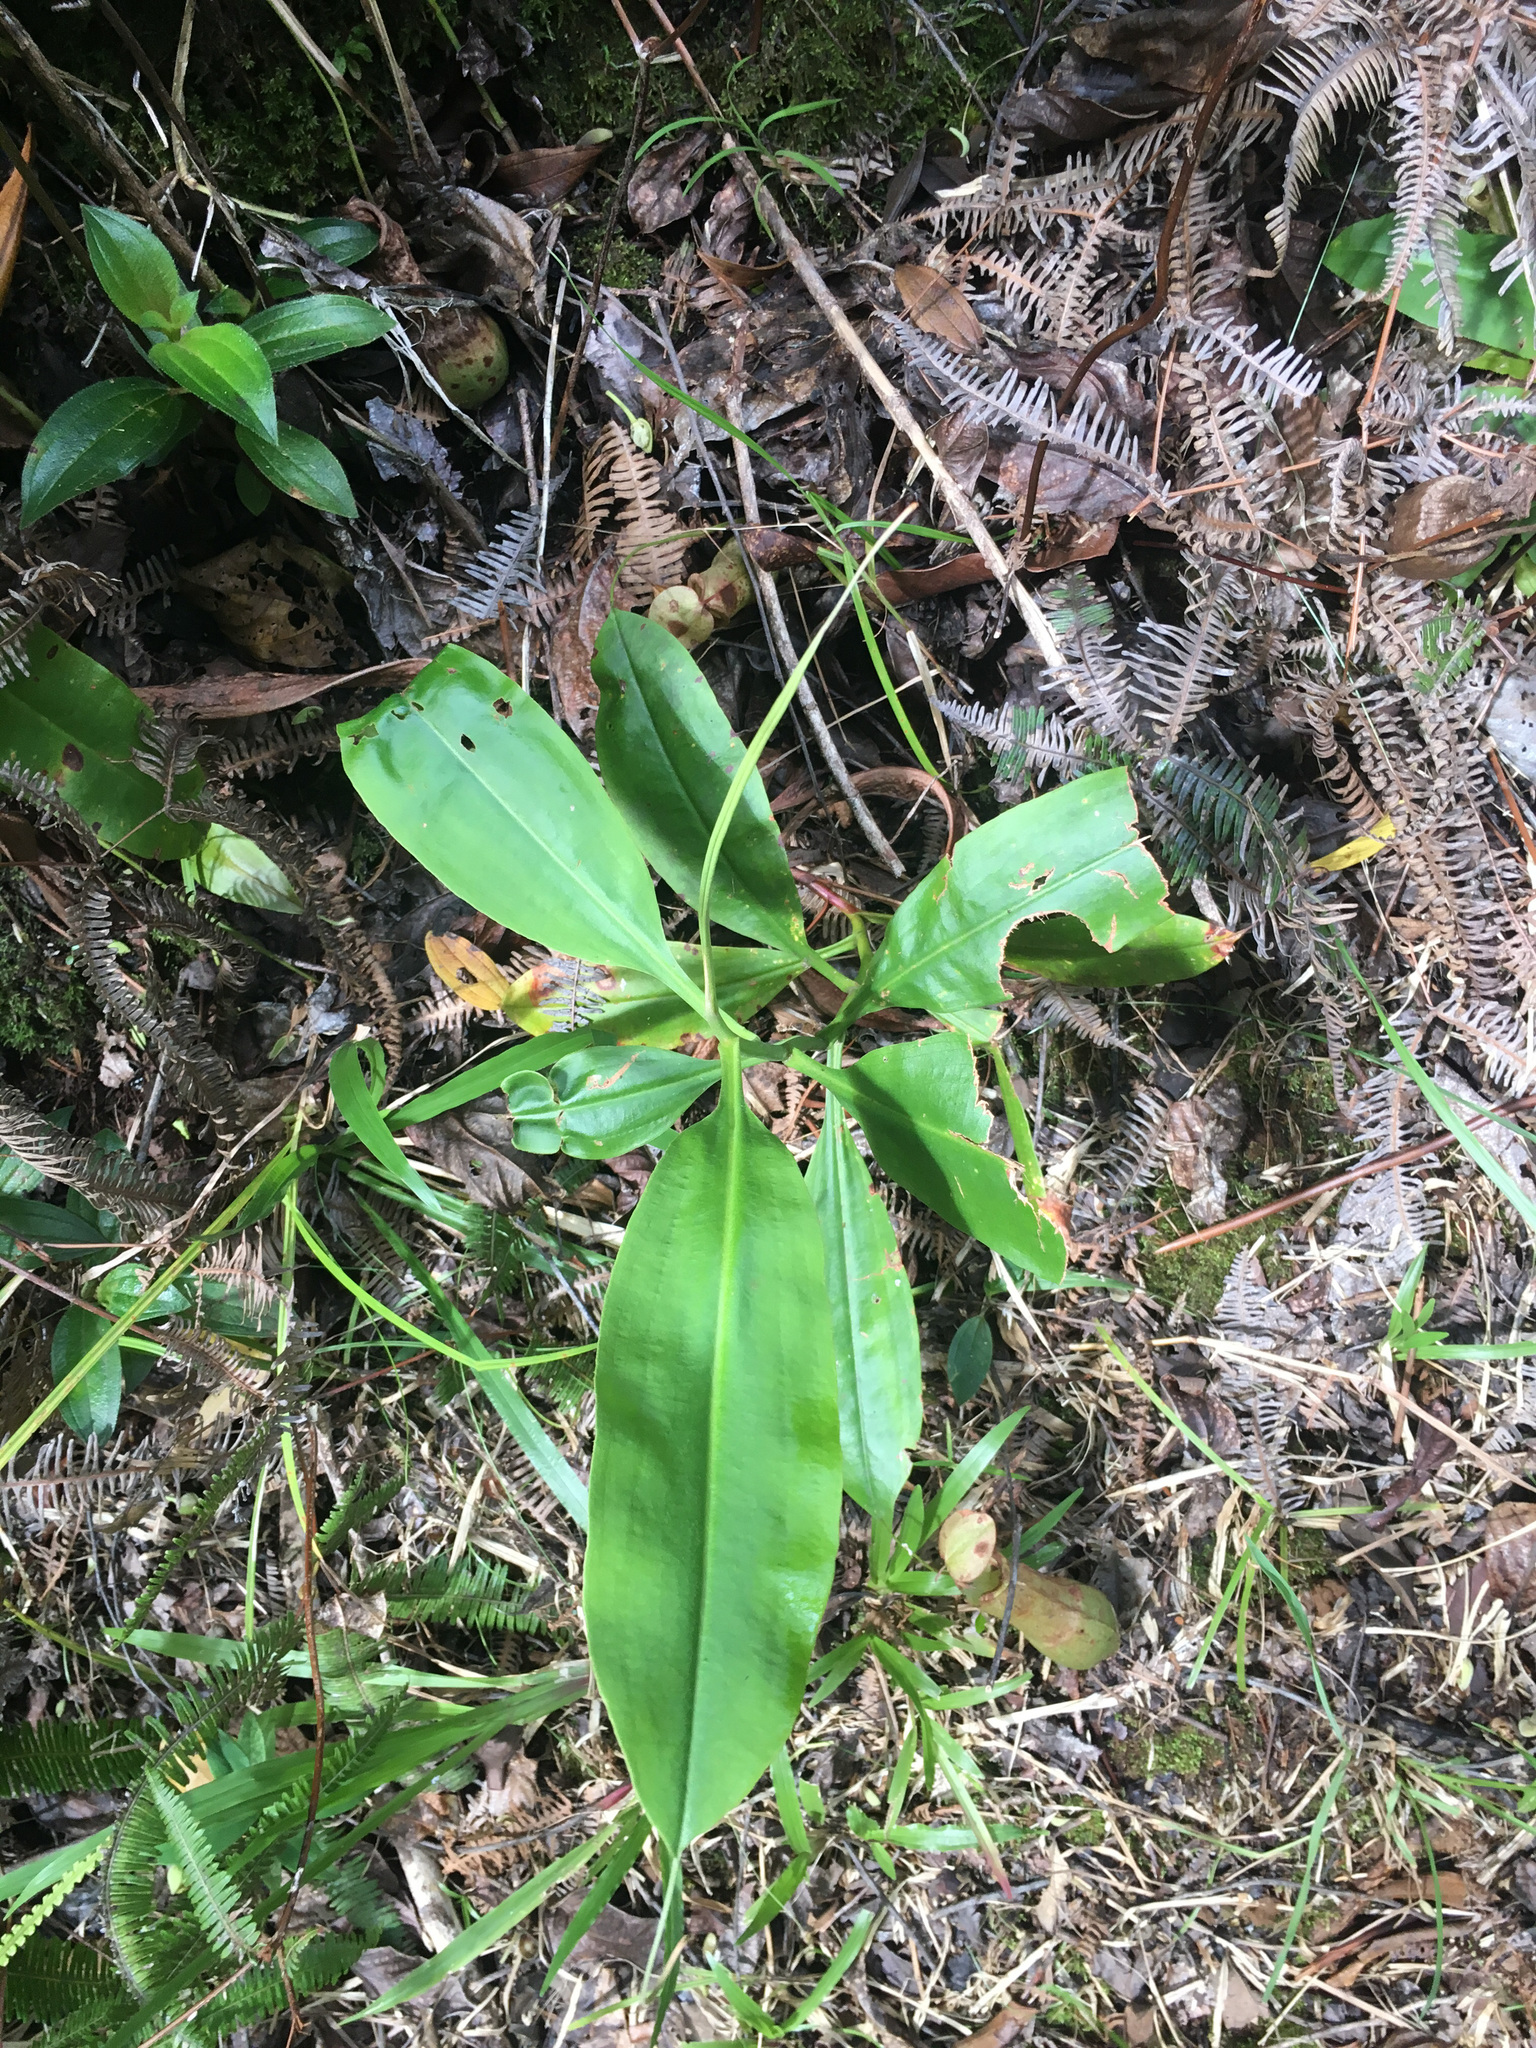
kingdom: Plantae
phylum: Tracheophyta
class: Magnoliopsida
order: Caryophyllales
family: Nepenthaceae
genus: Nepenthes
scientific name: Nepenthes mirabilis
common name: Tropical pitcherplant
